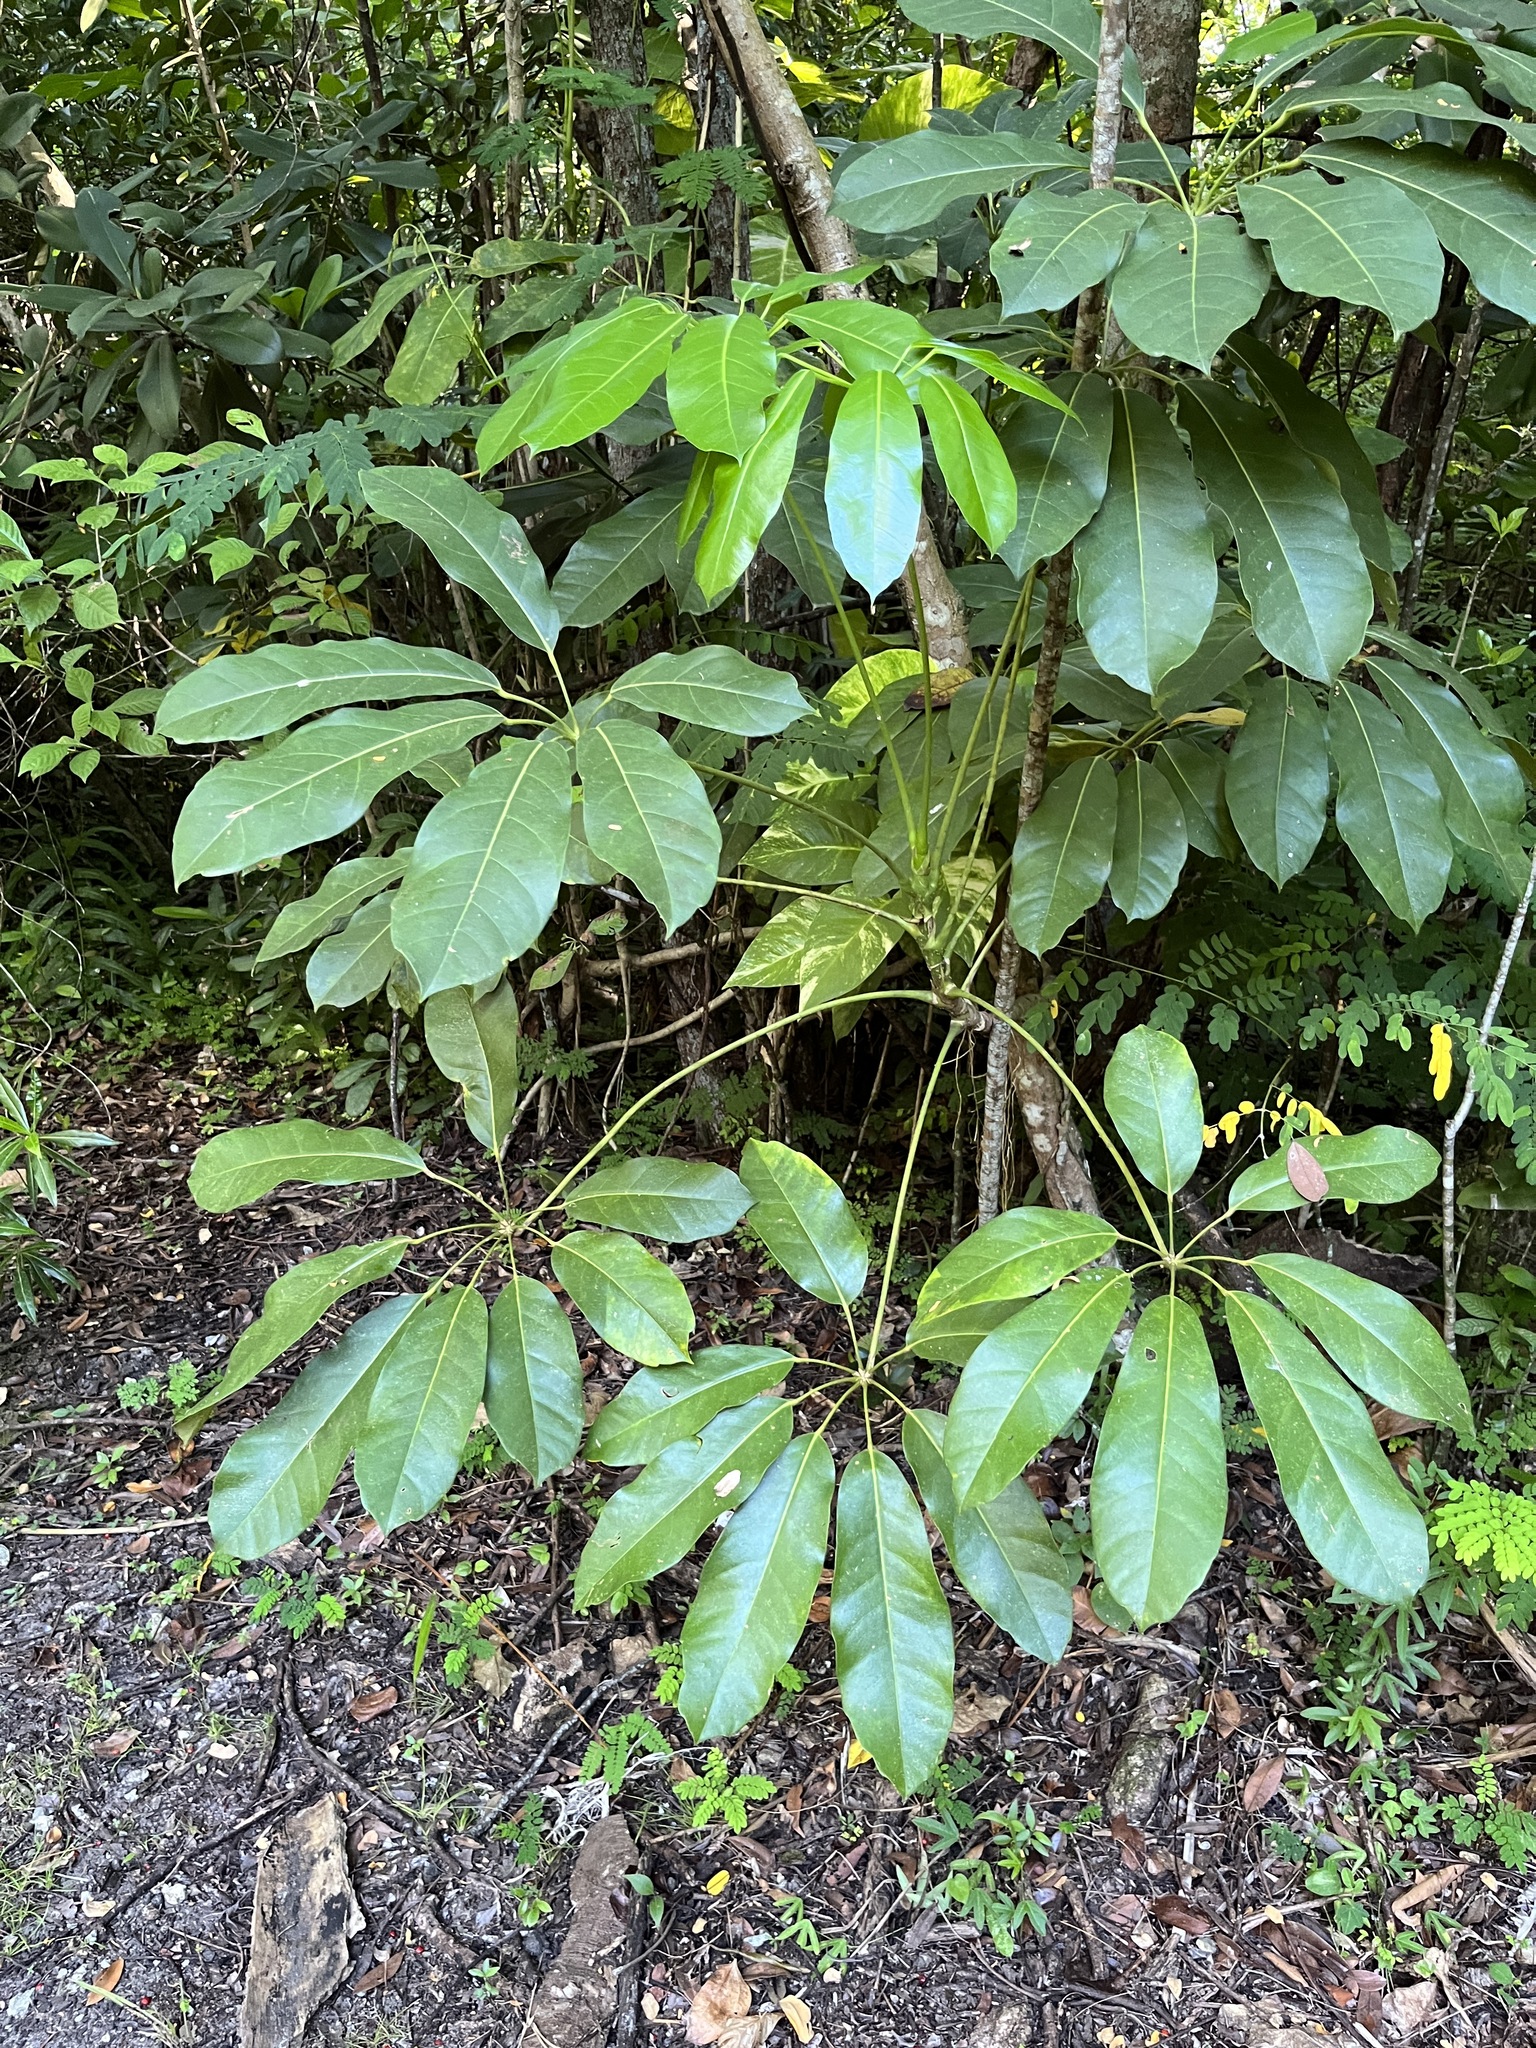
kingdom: Plantae
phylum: Tracheophyta
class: Magnoliopsida
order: Apiales
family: Araliaceae
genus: Heptapleurum
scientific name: Heptapleurum actinophyllum
